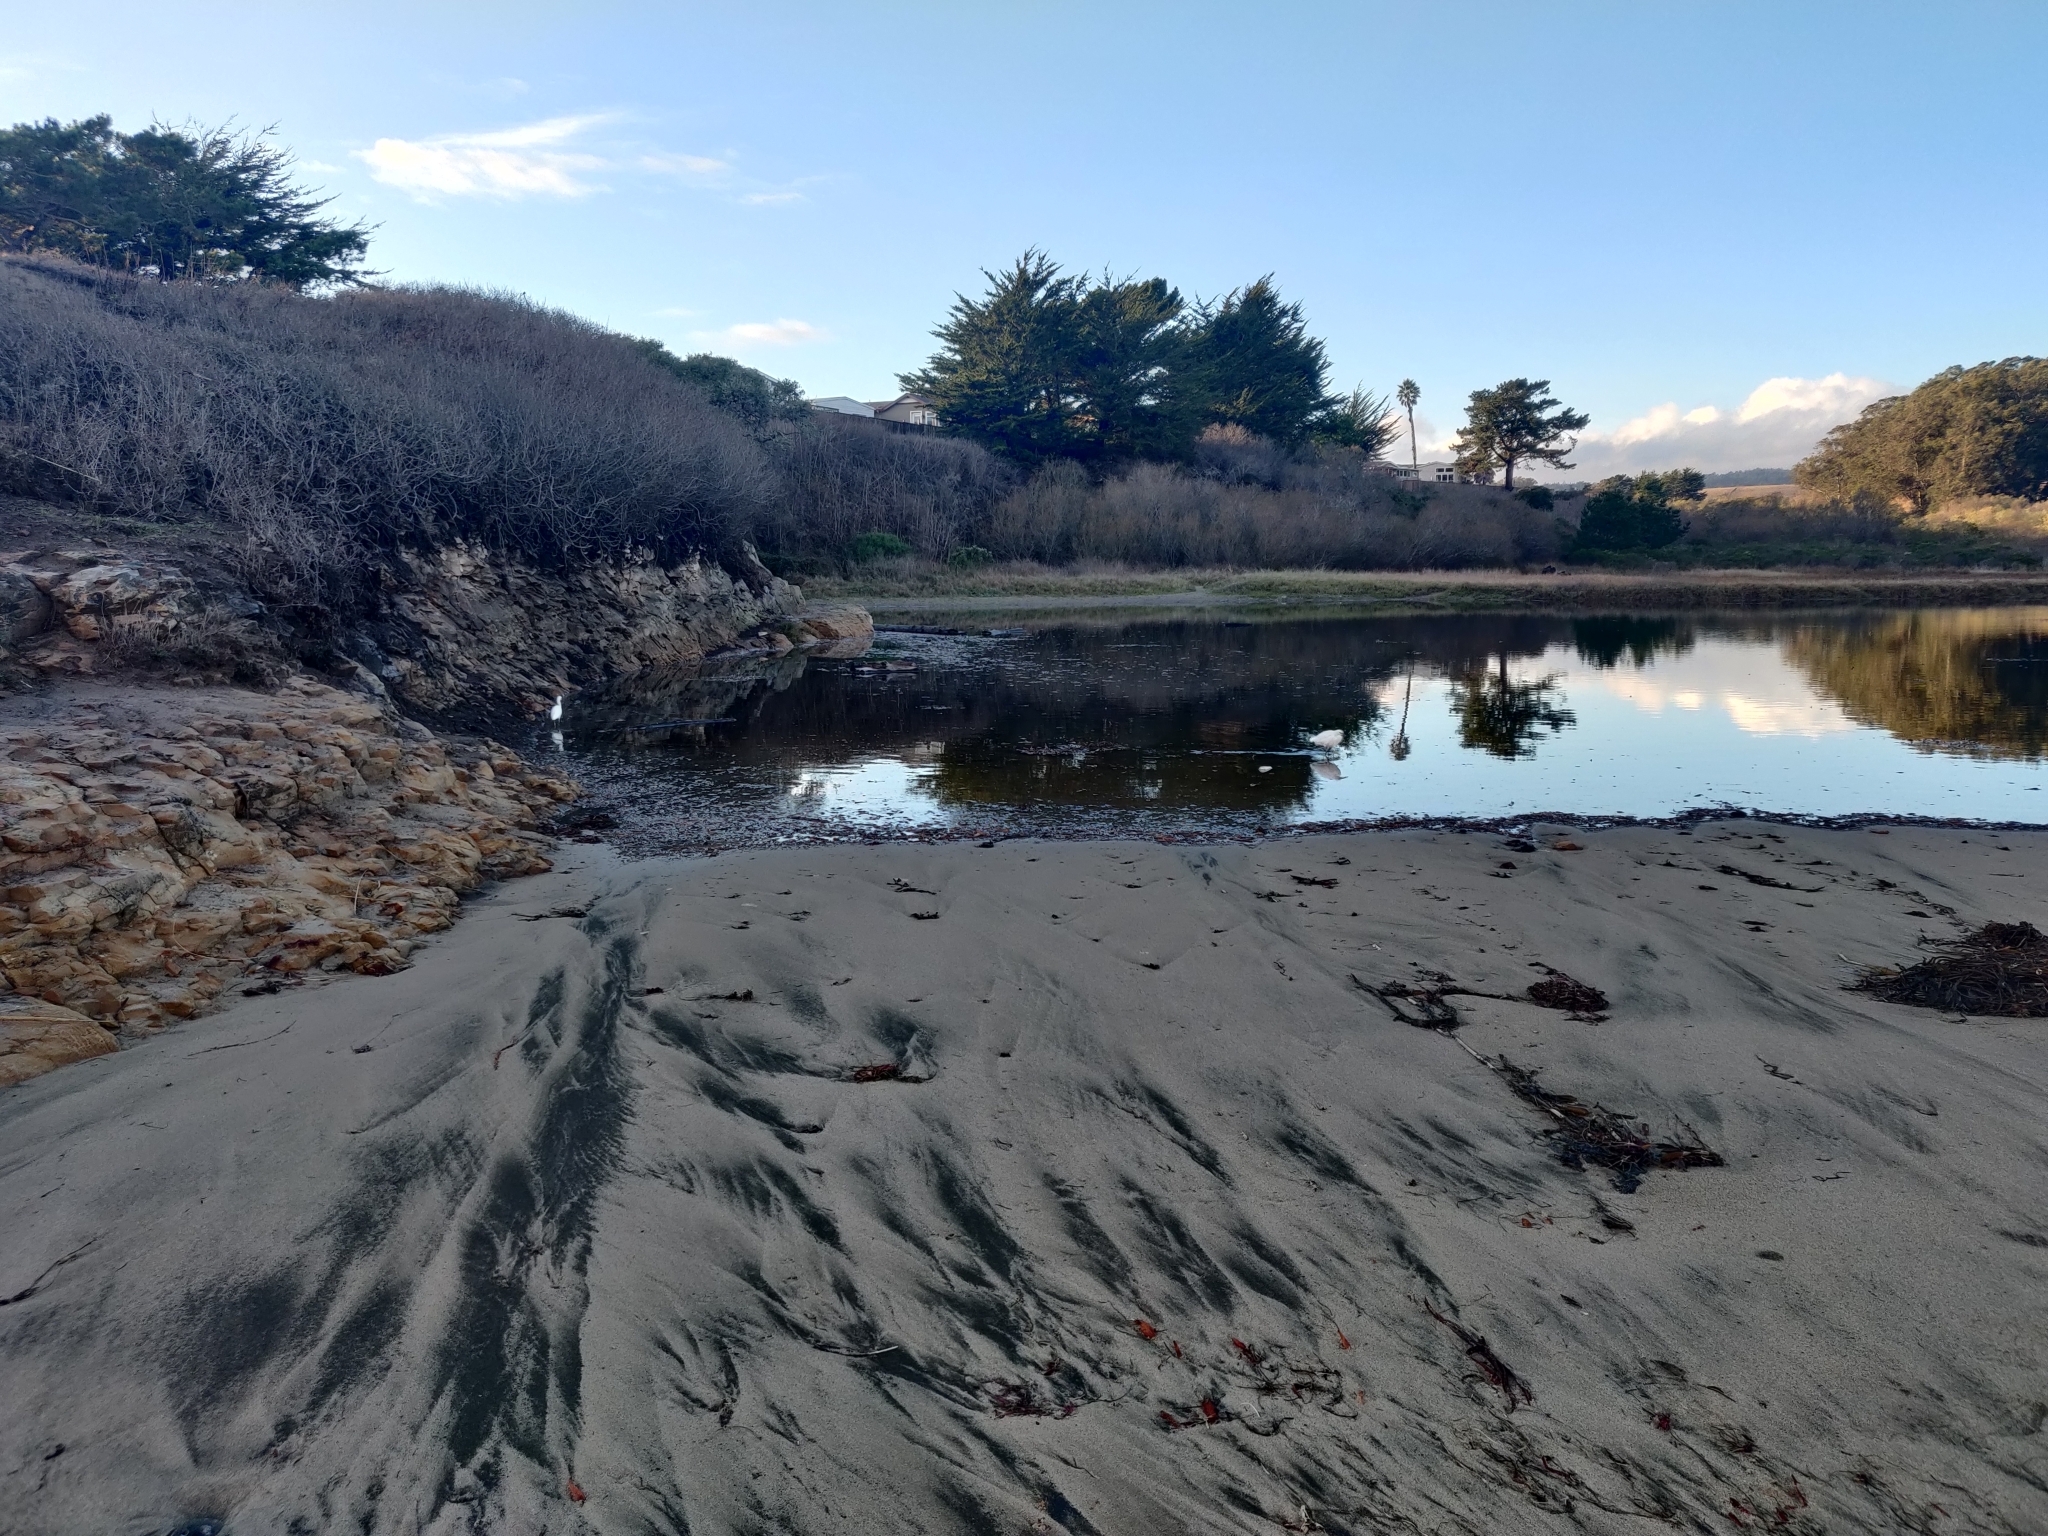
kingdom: Animalia
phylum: Chordata
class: Aves
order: Pelecaniformes
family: Ardeidae
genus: Egretta
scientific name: Egretta thula
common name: Snowy egret
